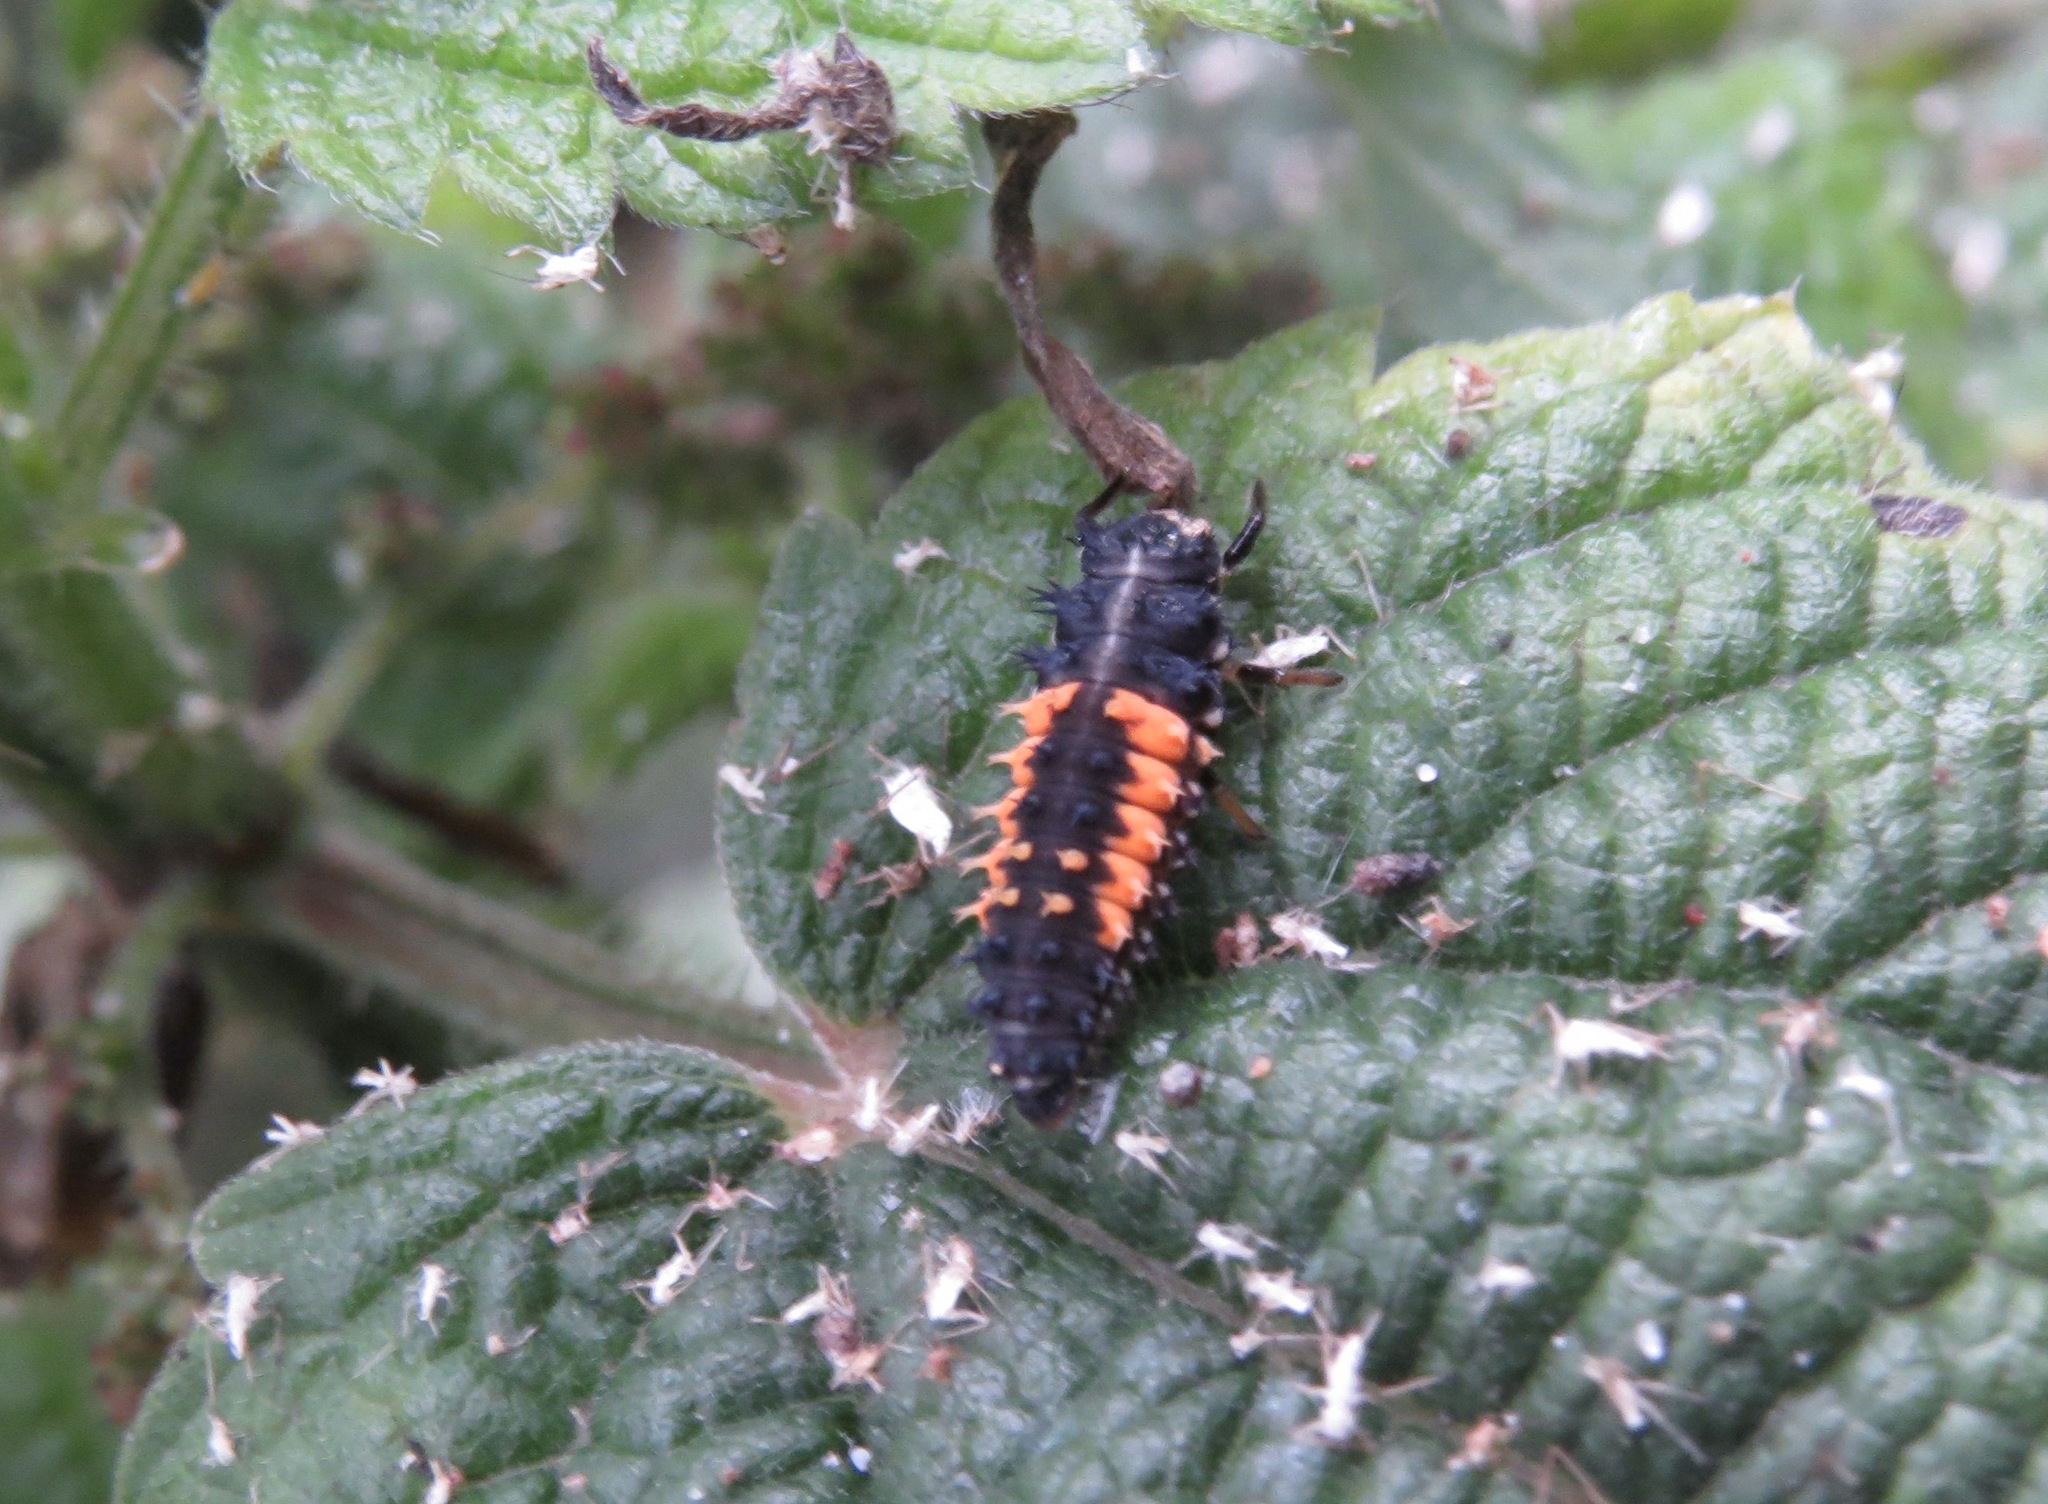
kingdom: Animalia
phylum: Arthropoda
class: Insecta
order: Coleoptera
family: Coccinellidae
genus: Harmonia
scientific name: Harmonia axyridis
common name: Harlequin ladybird
